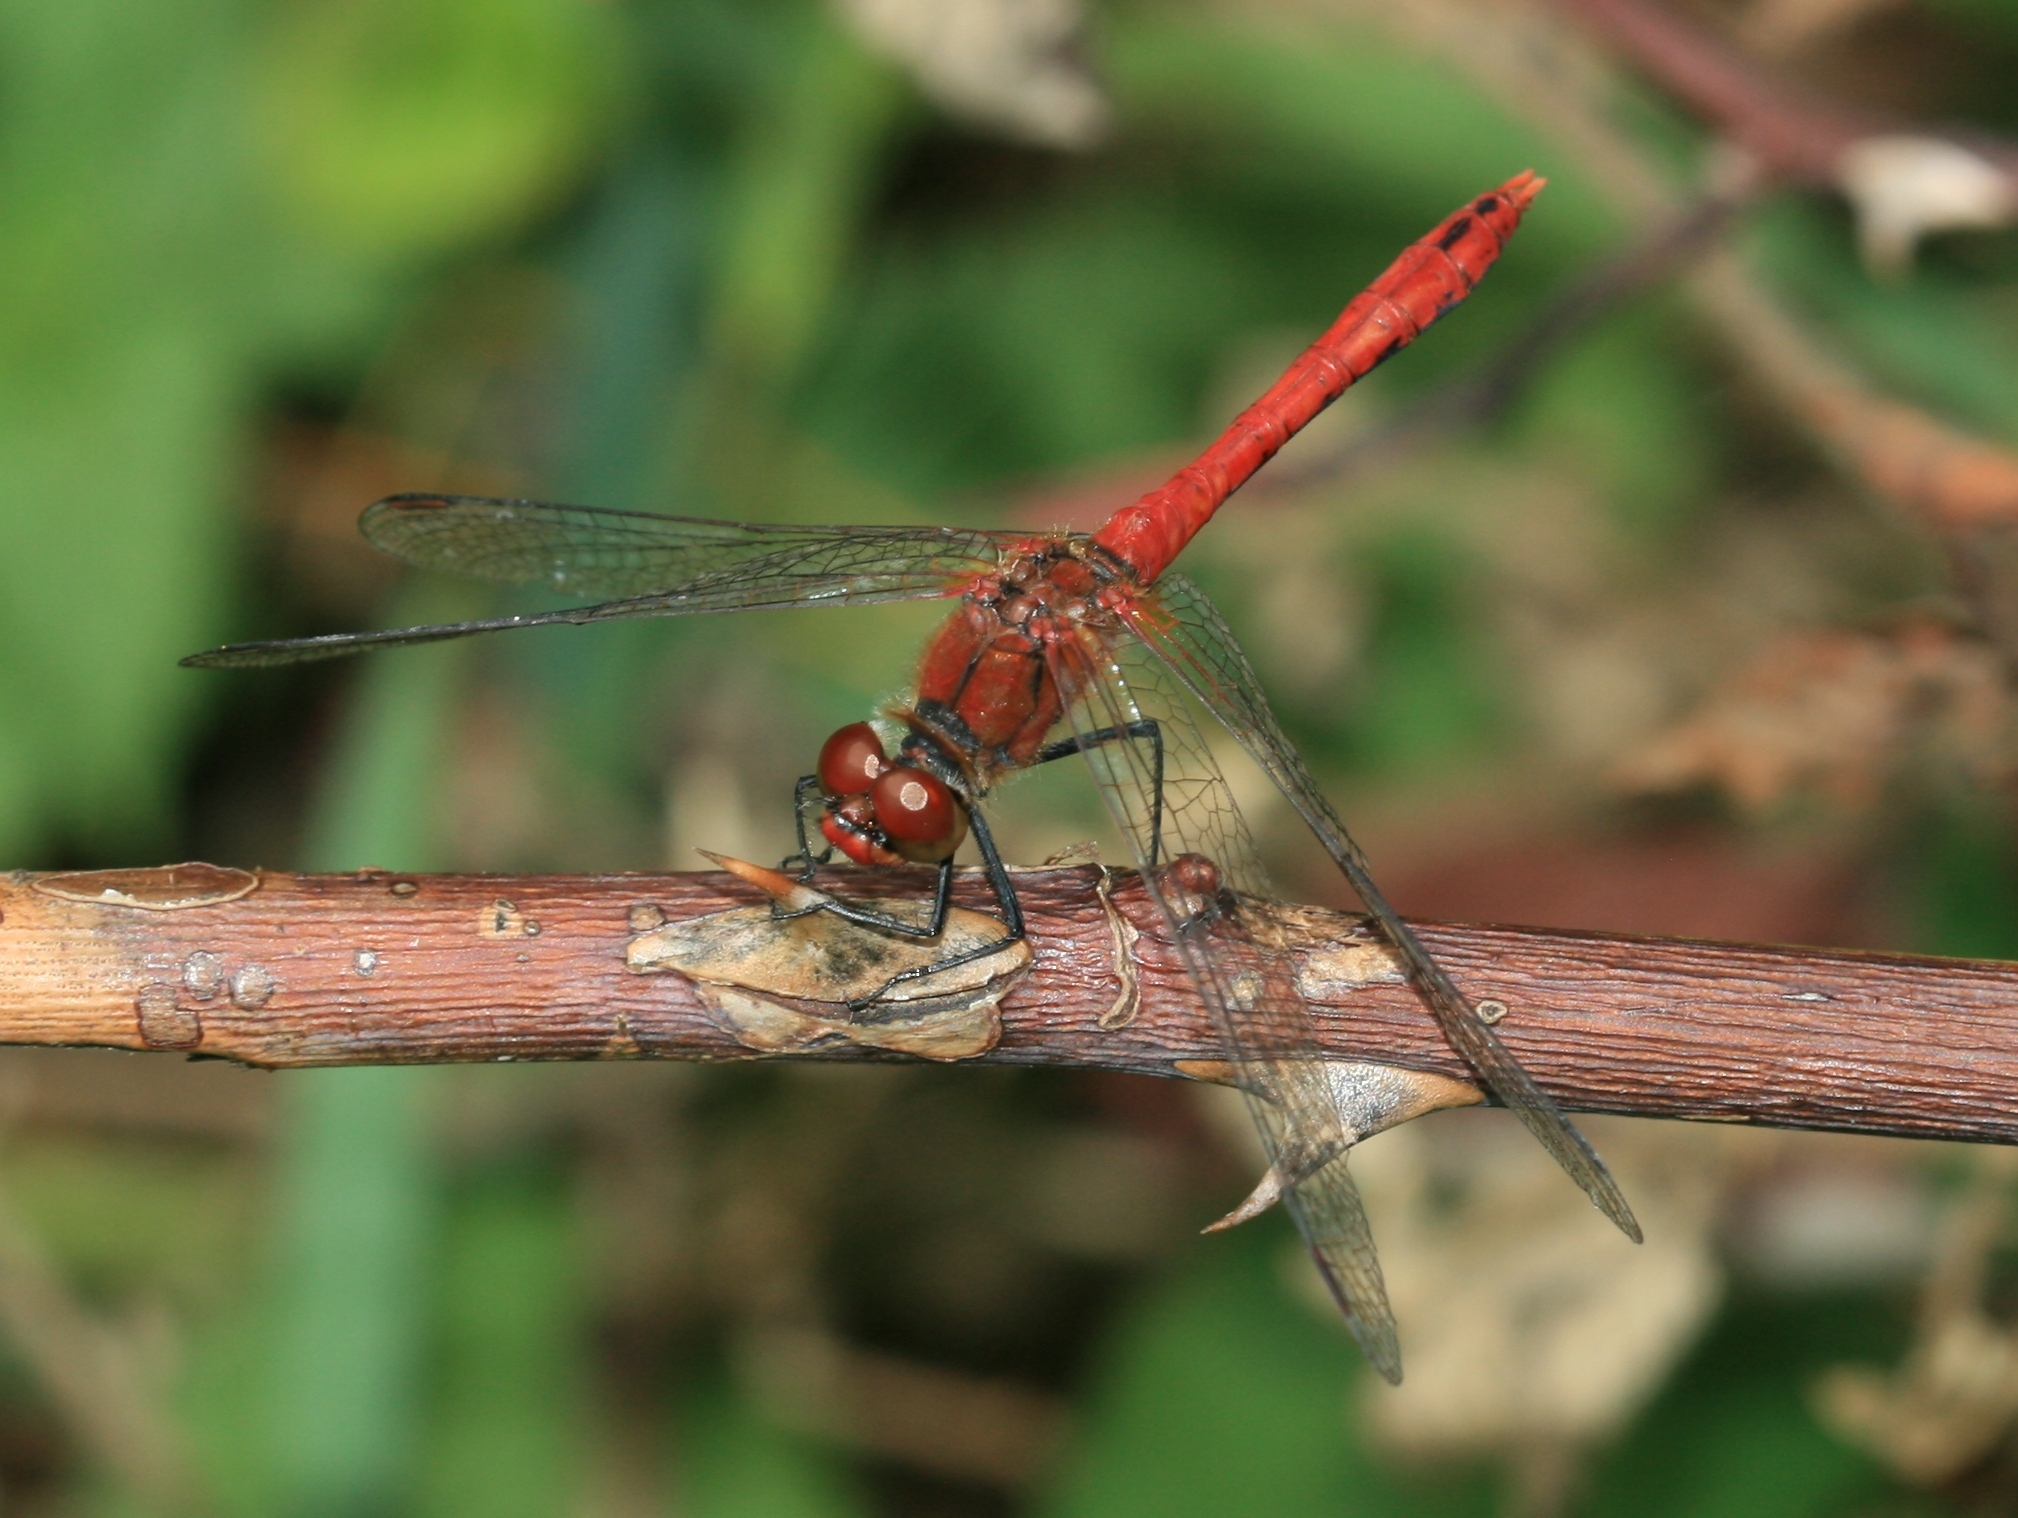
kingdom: Animalia
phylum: Arthropoda
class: Insecta
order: Odonata
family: Libellulidae
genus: Sympetrum
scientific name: Sympetrum sanguineum
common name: Ruddy darter
